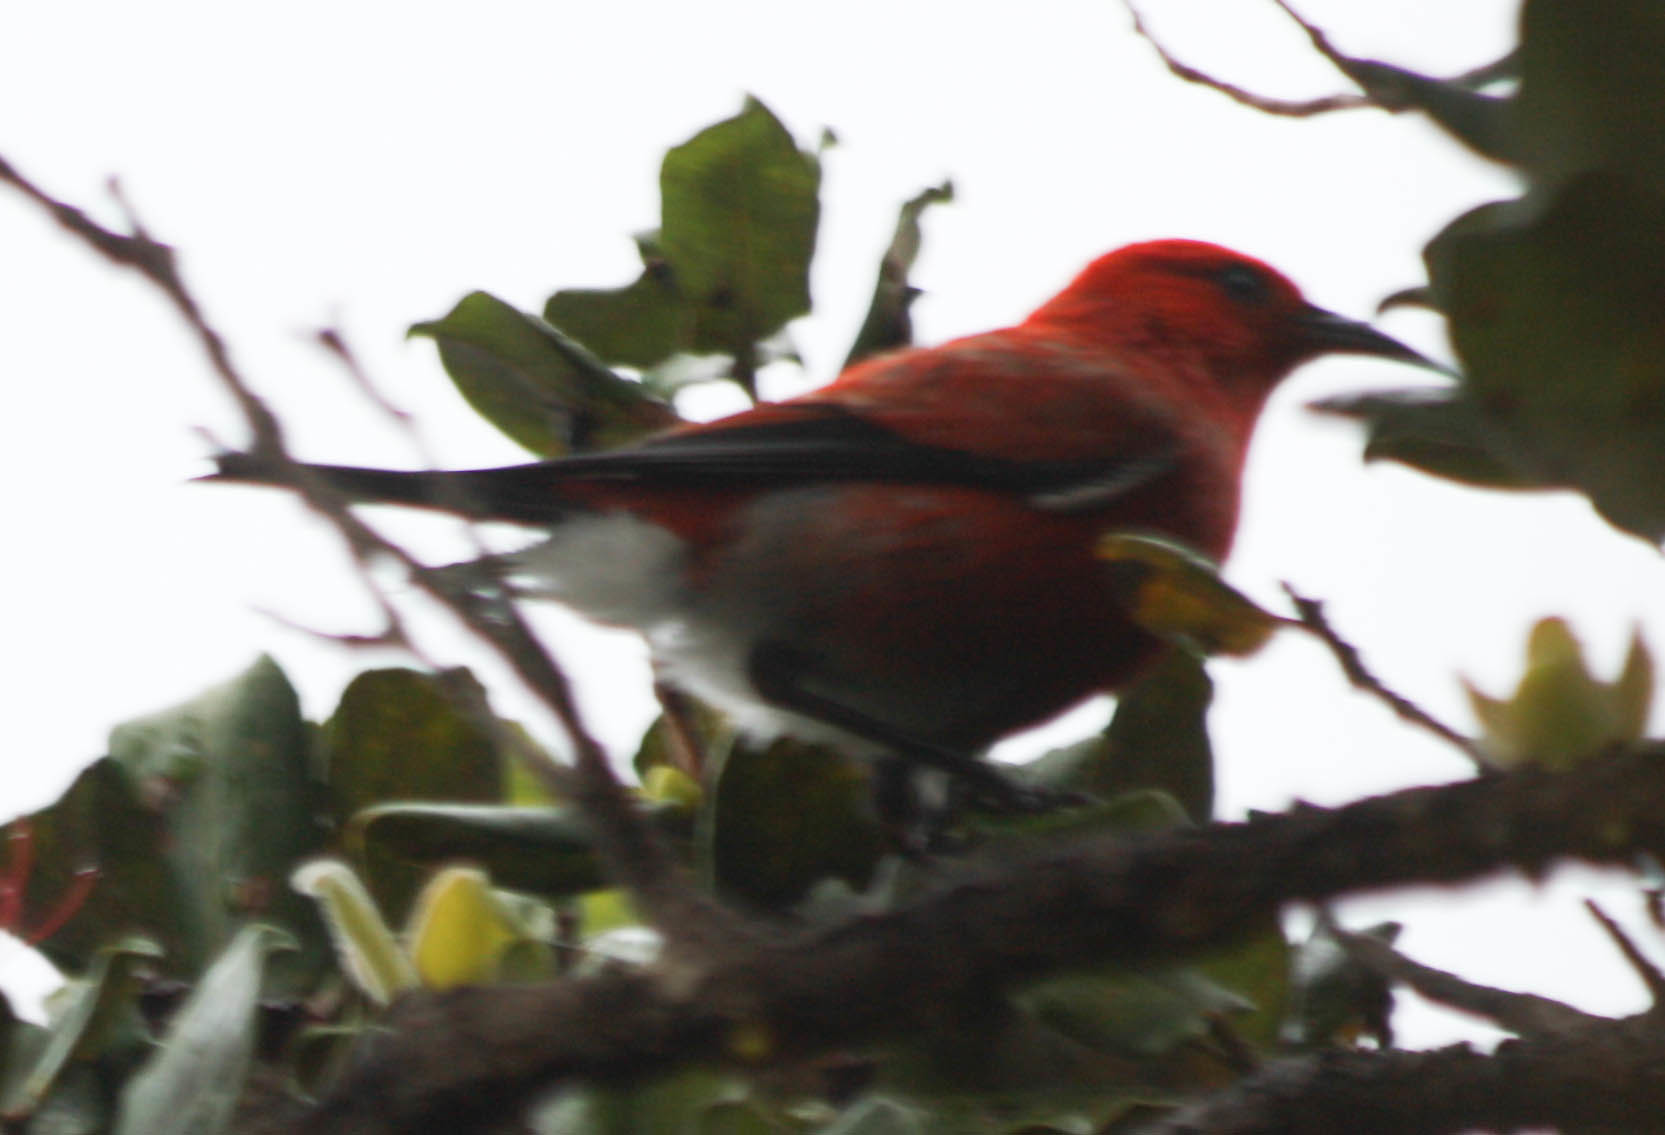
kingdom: Animalia
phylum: Chordata
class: Aves
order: Passeriformes
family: Fringillidae
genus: Himatione
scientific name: Himatione sanguinea
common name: Apapane
